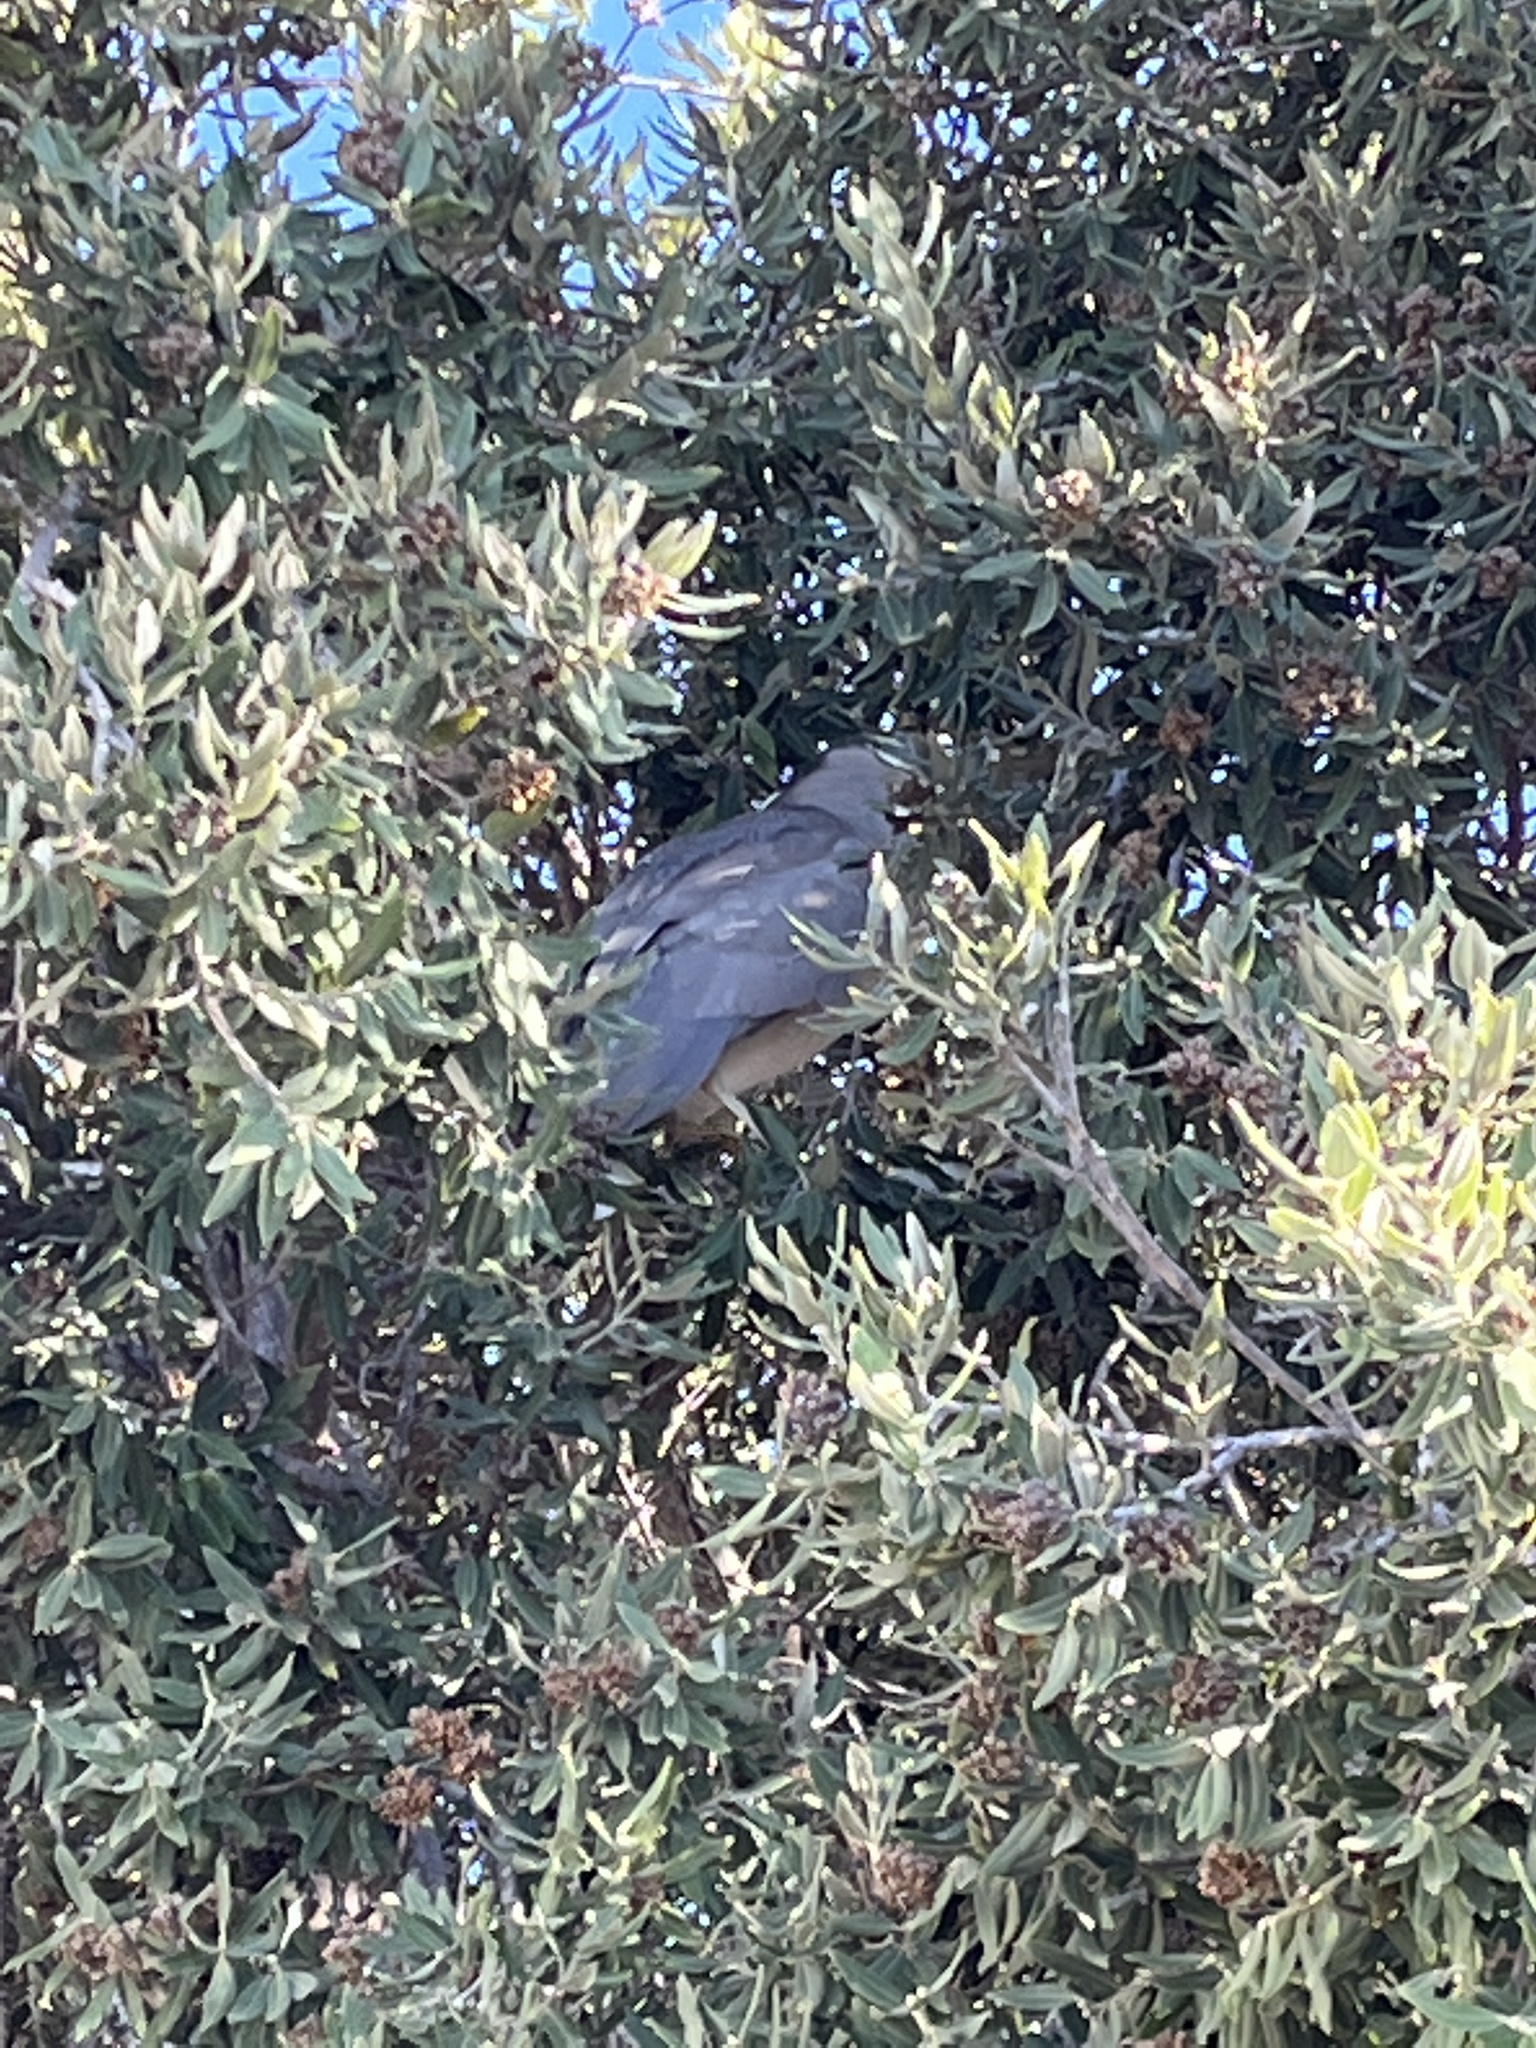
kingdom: Animalia
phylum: Chordata
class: Aves
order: Pelecaniformes
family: Ardeidae
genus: Nycticorax
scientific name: Nycticorax nycticorax
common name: Black-crowned night heron
